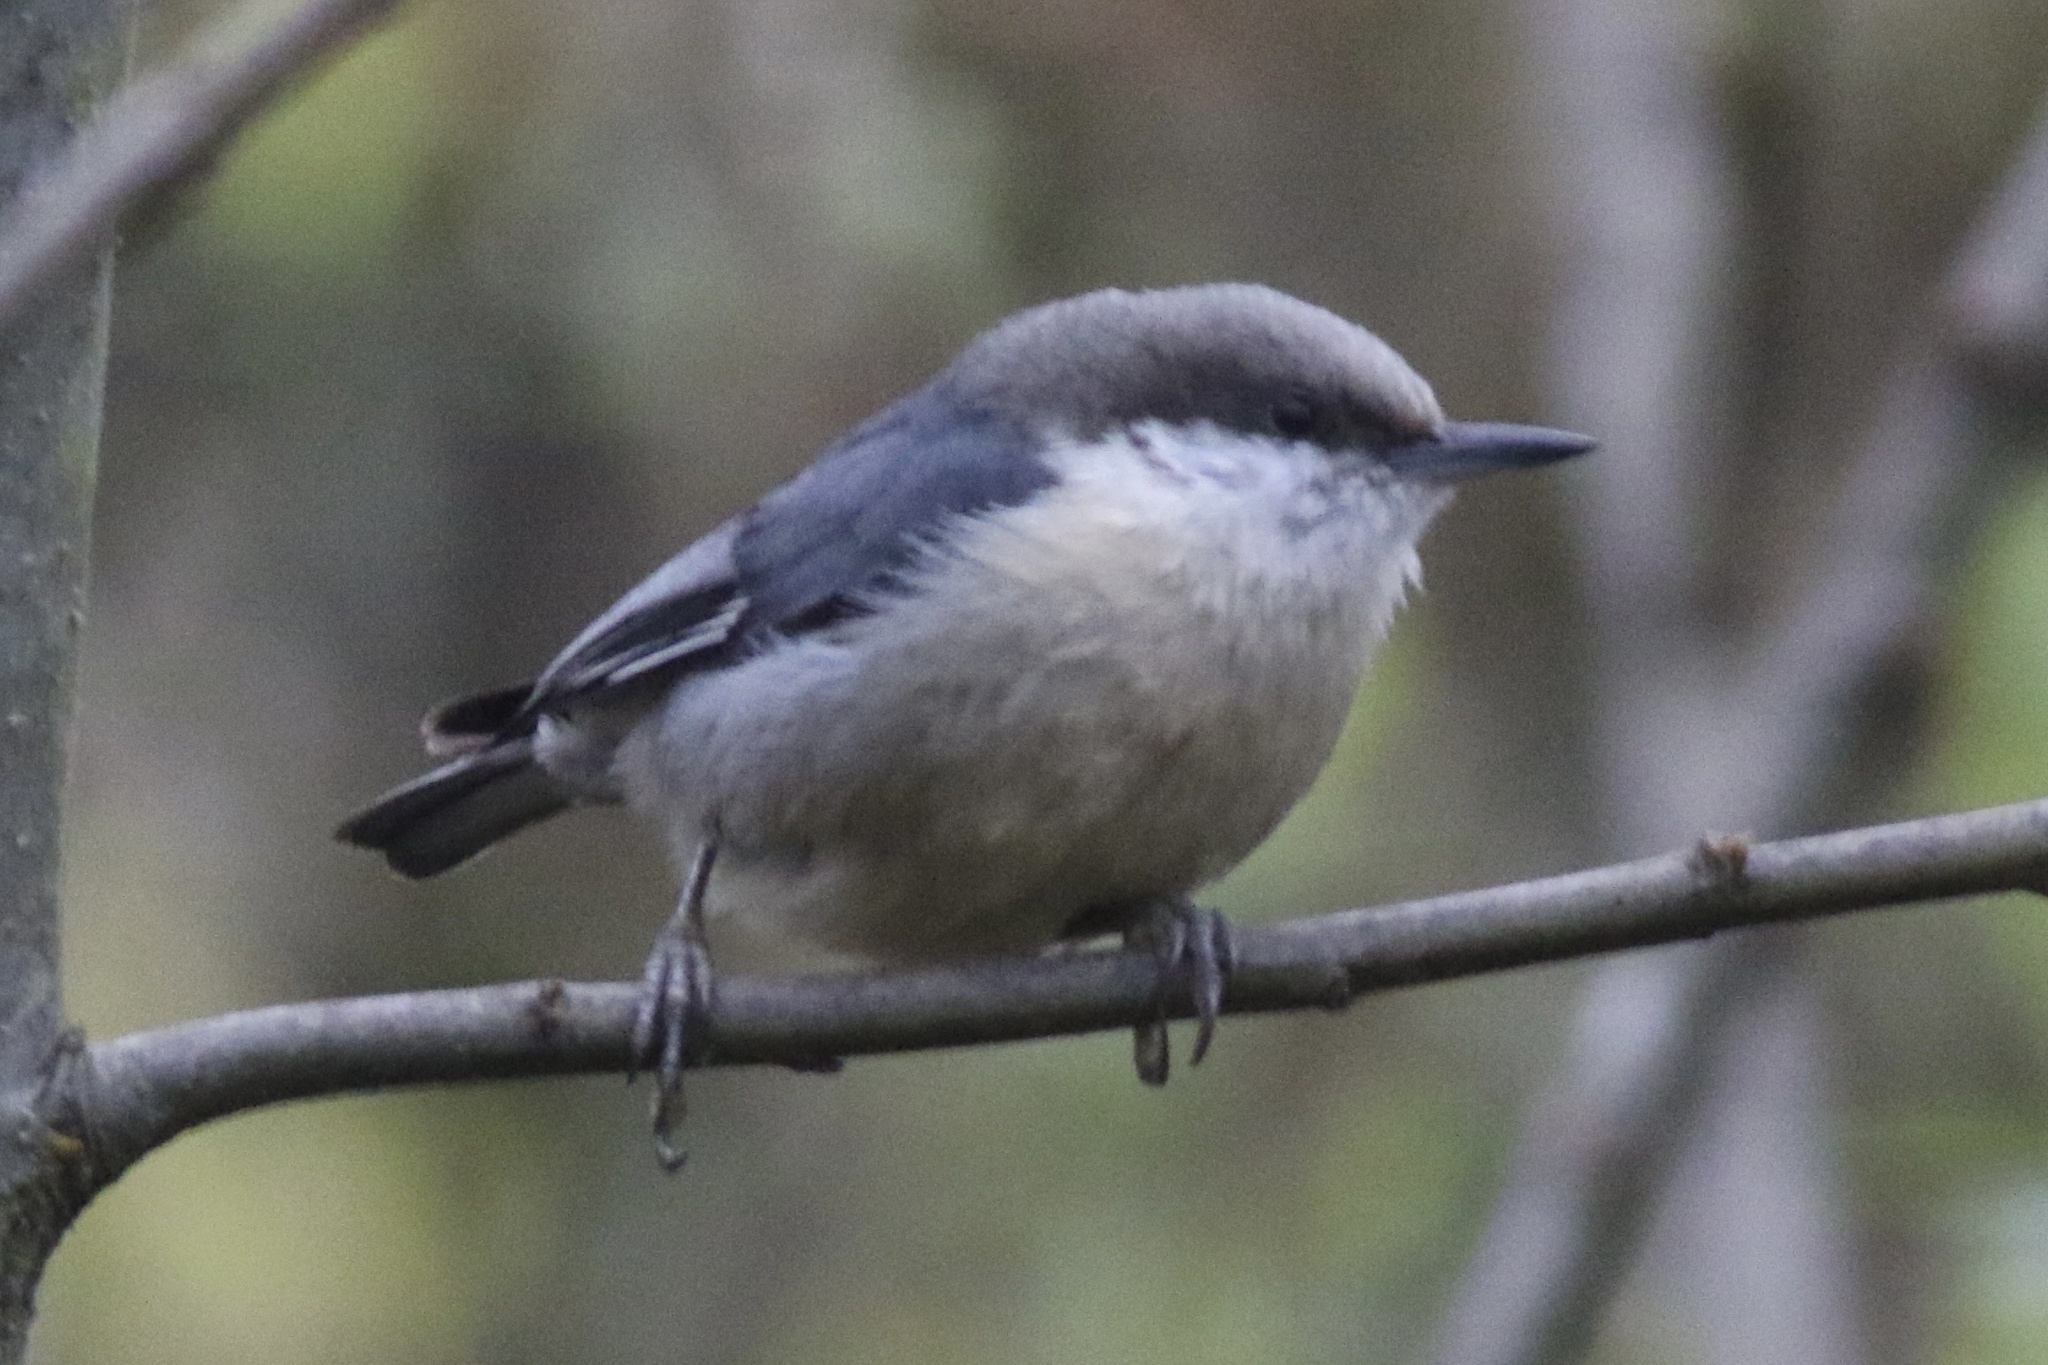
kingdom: Animalia
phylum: Chordata
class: Aves
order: Passeriformes
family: Sittidae
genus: Sitta
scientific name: Sitta pygmaea
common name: Pygmy nuthatch
